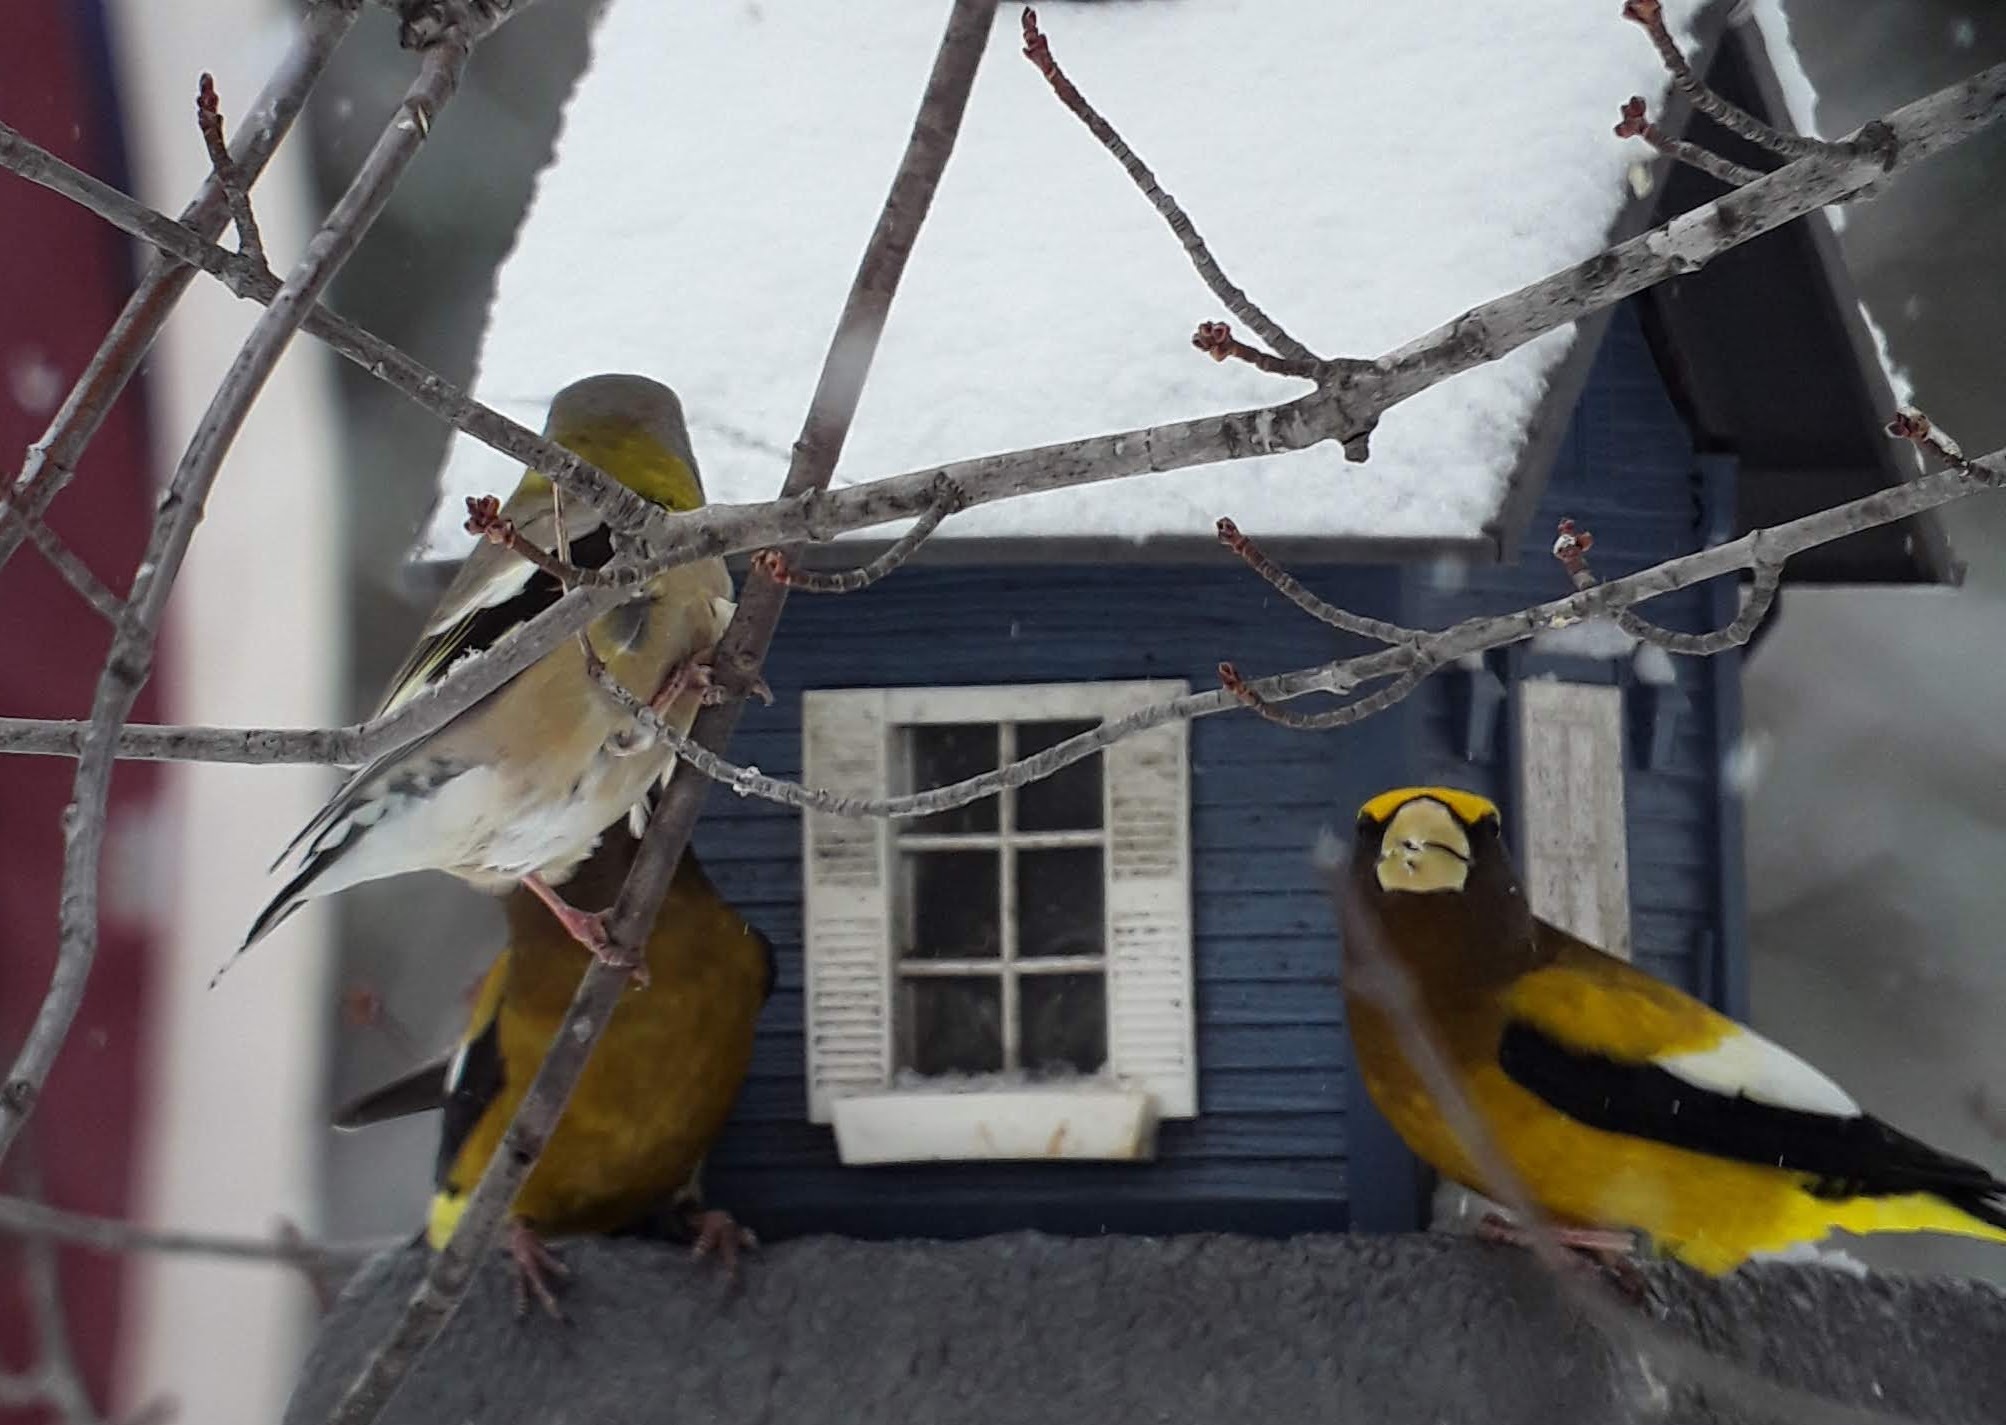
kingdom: Animalia
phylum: Chordata
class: Aves
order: Passeriformes
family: Fringillidae
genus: Hesperiphona
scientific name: Hesperiphona vespertina
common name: Evening grosbeak
